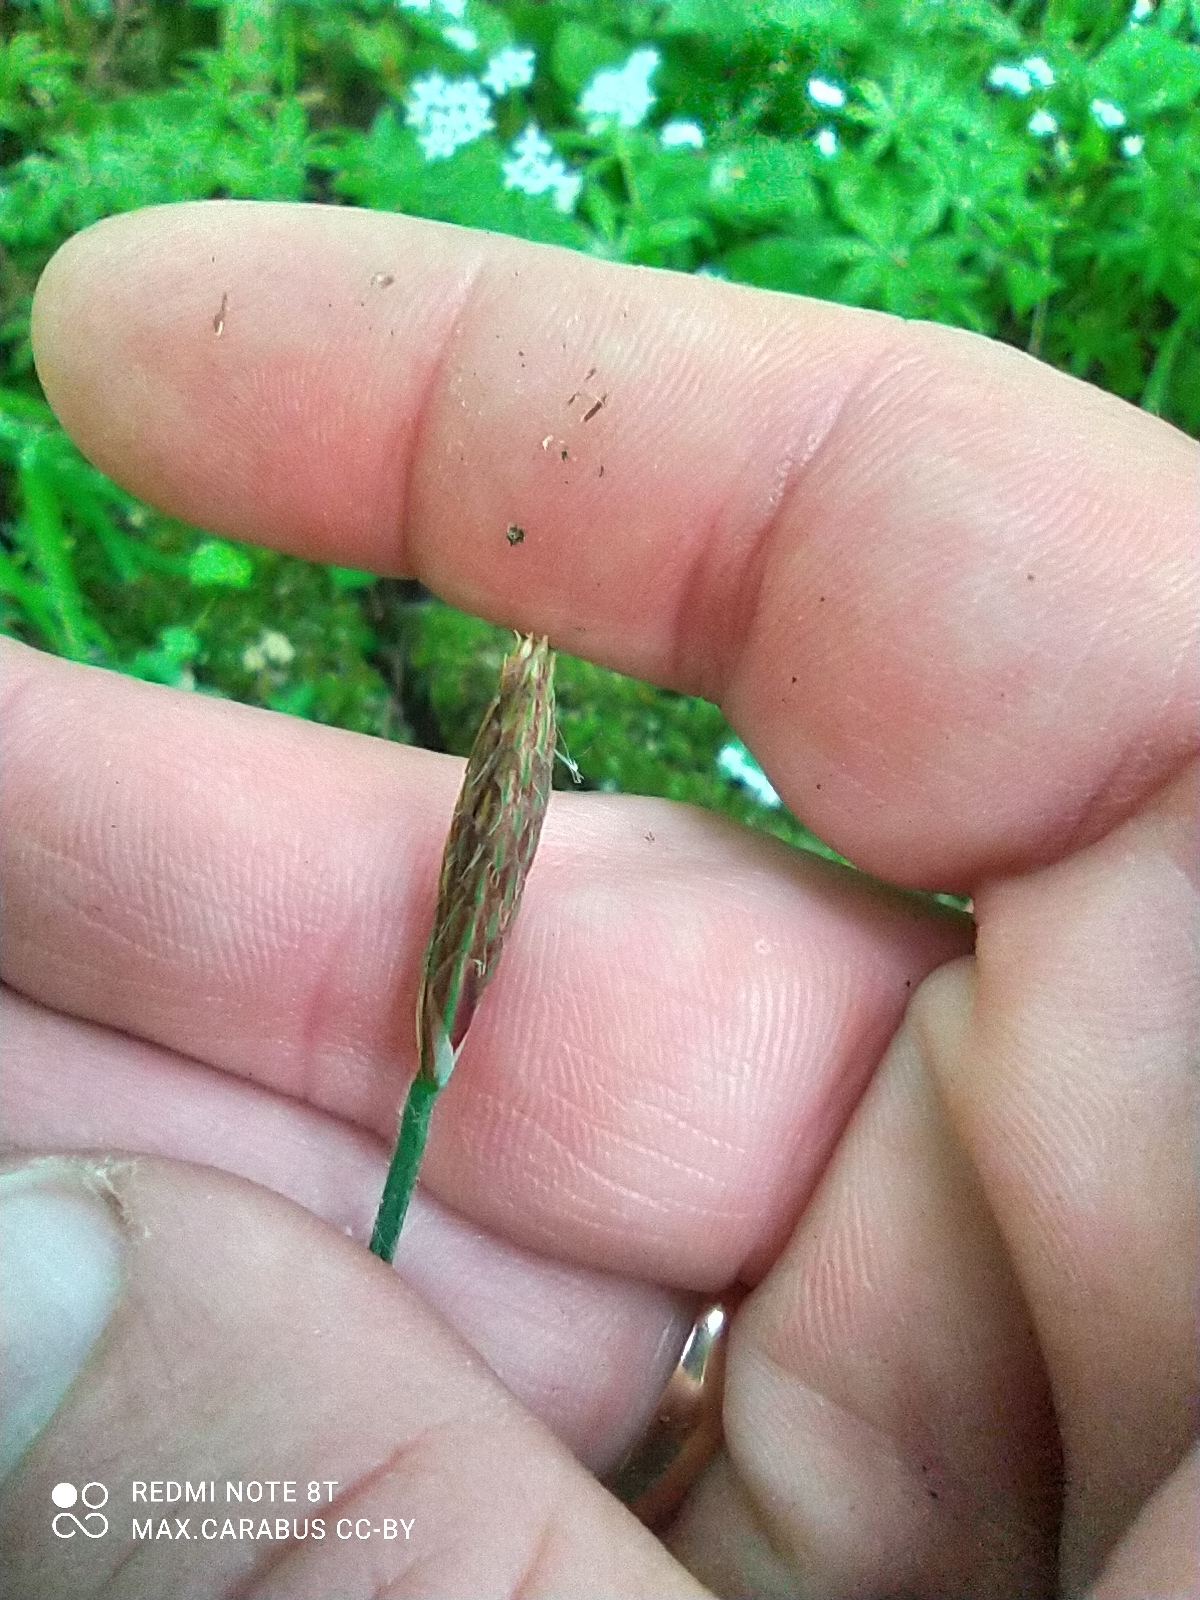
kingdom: Plantae
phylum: Tracheophyta
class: Liliopsida
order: Poales
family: Cyperaceae
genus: Carex
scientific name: Carex pilosa
